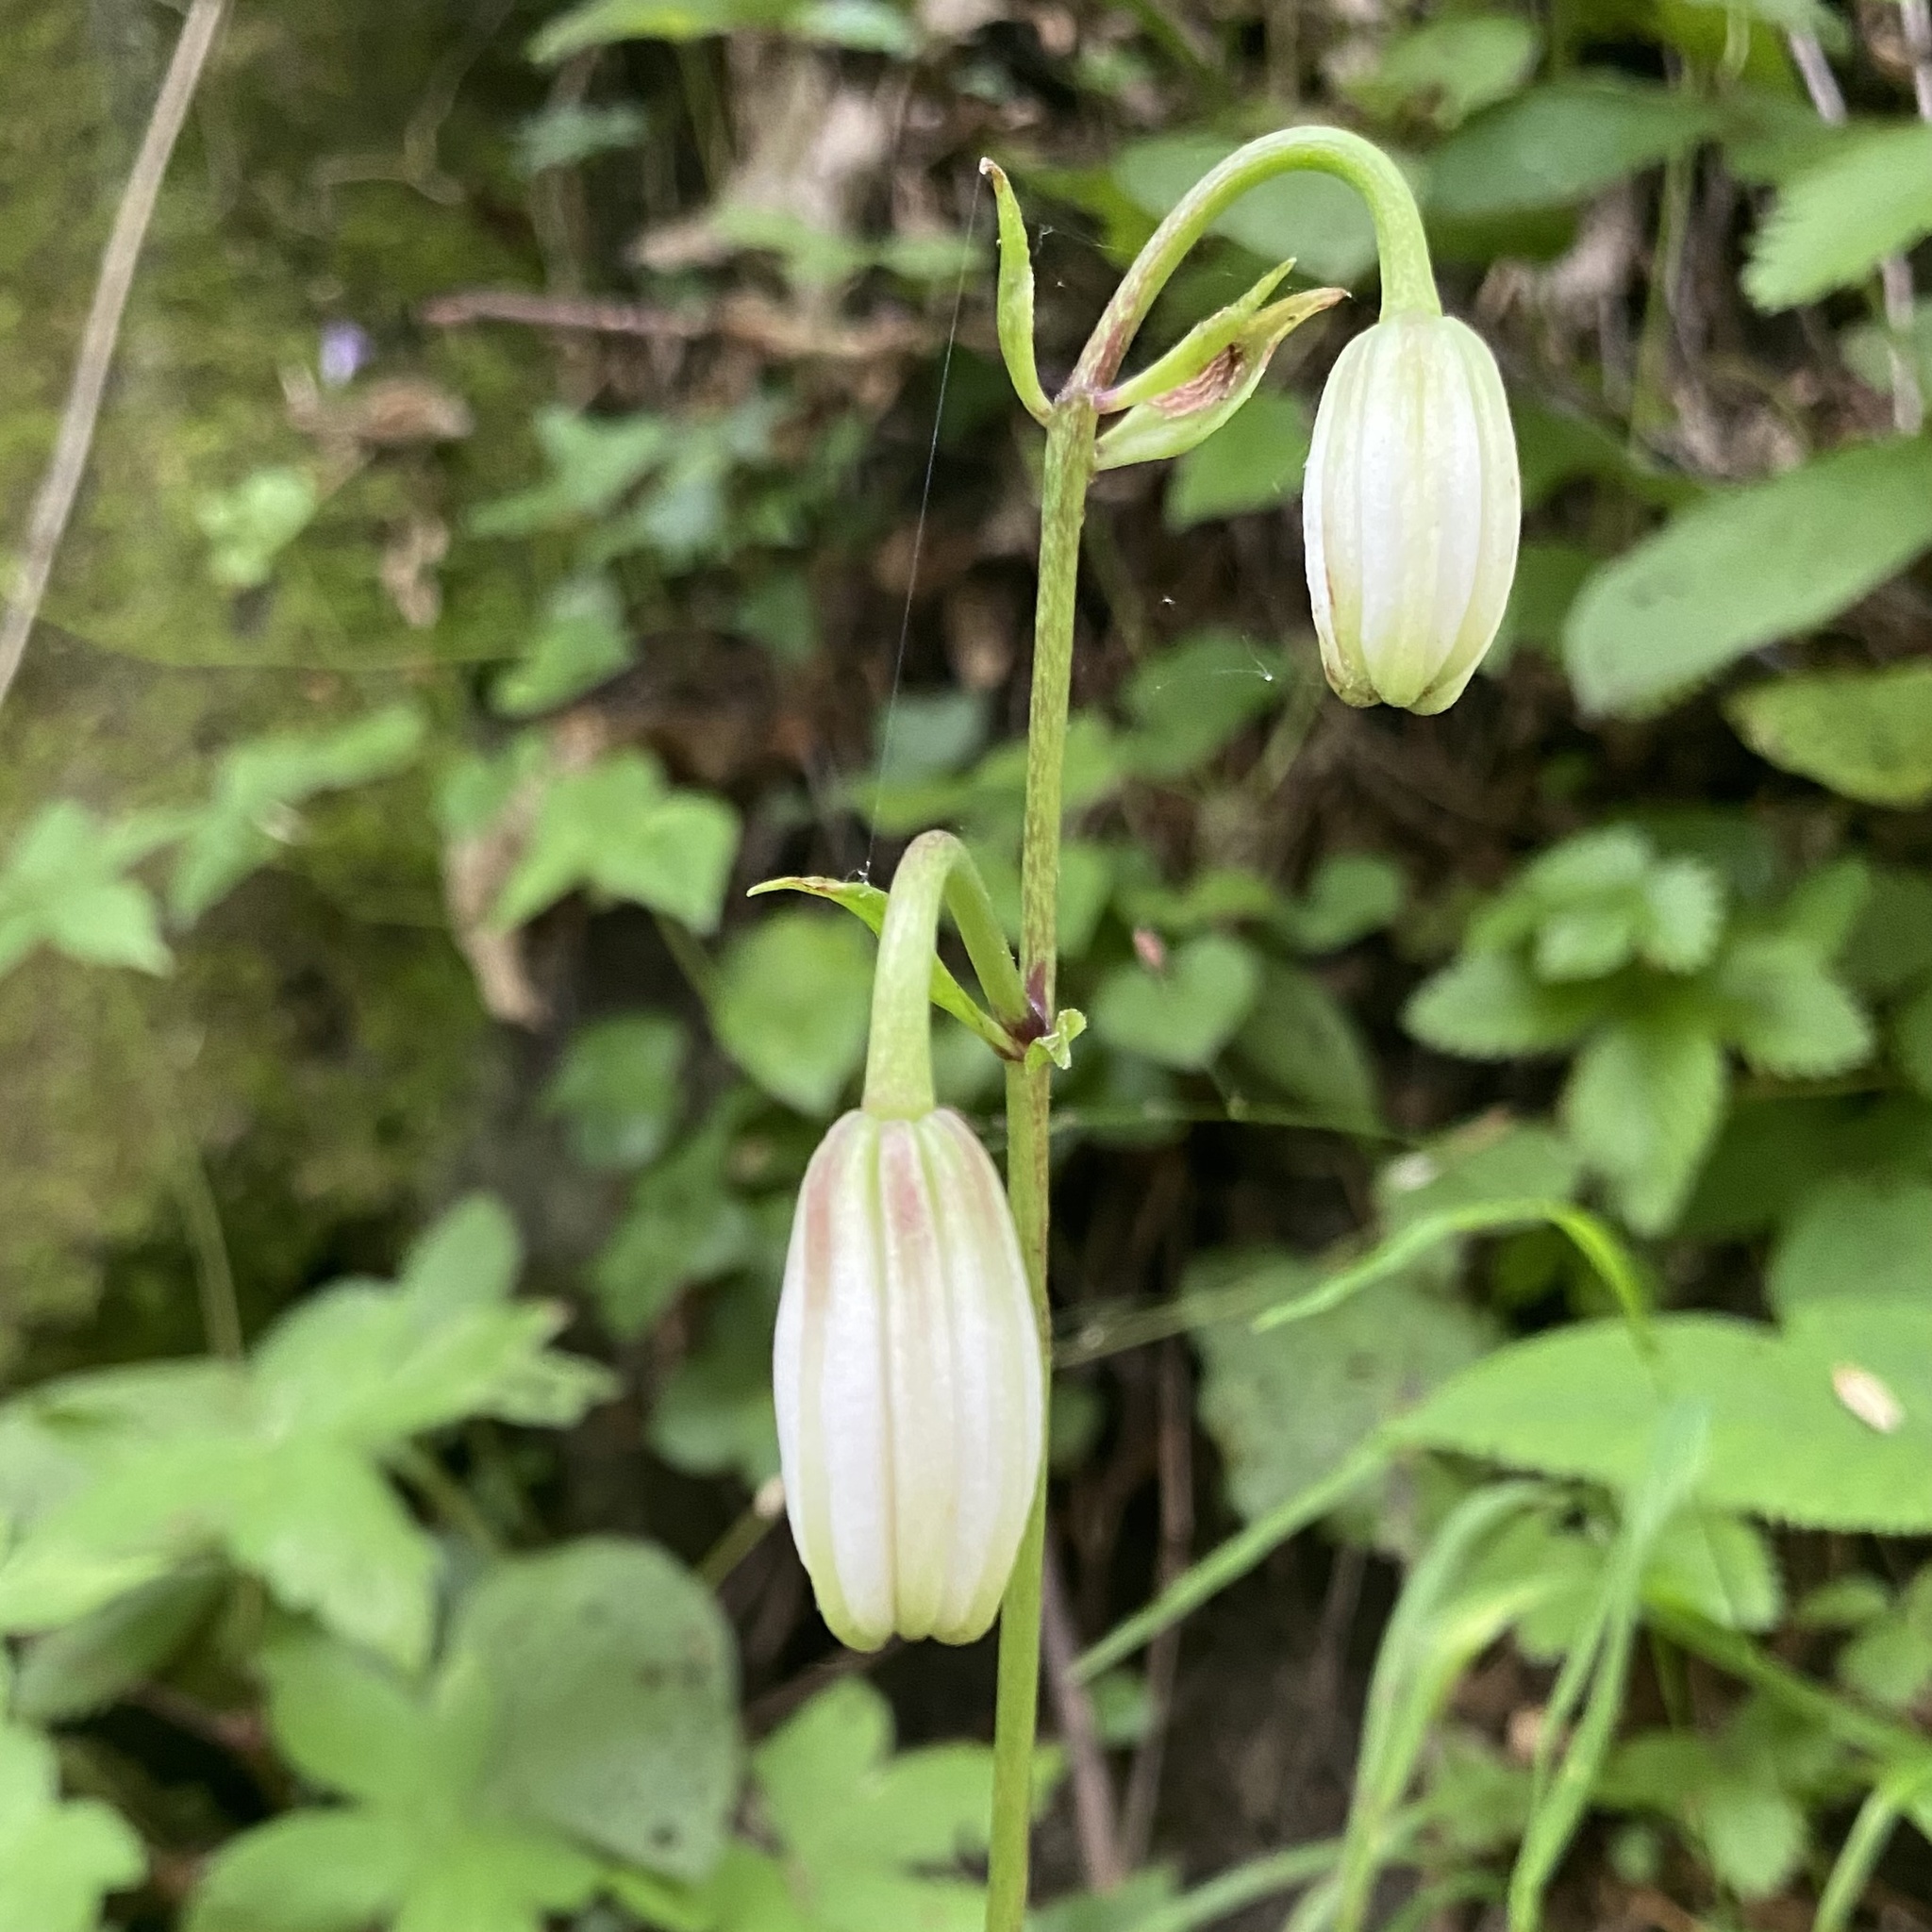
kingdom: Plantae
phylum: Tracheophyta
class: Liliopsida
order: Liliales
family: Liliaceae
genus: Lilium
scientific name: Lilium martagon
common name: Martagon lily
